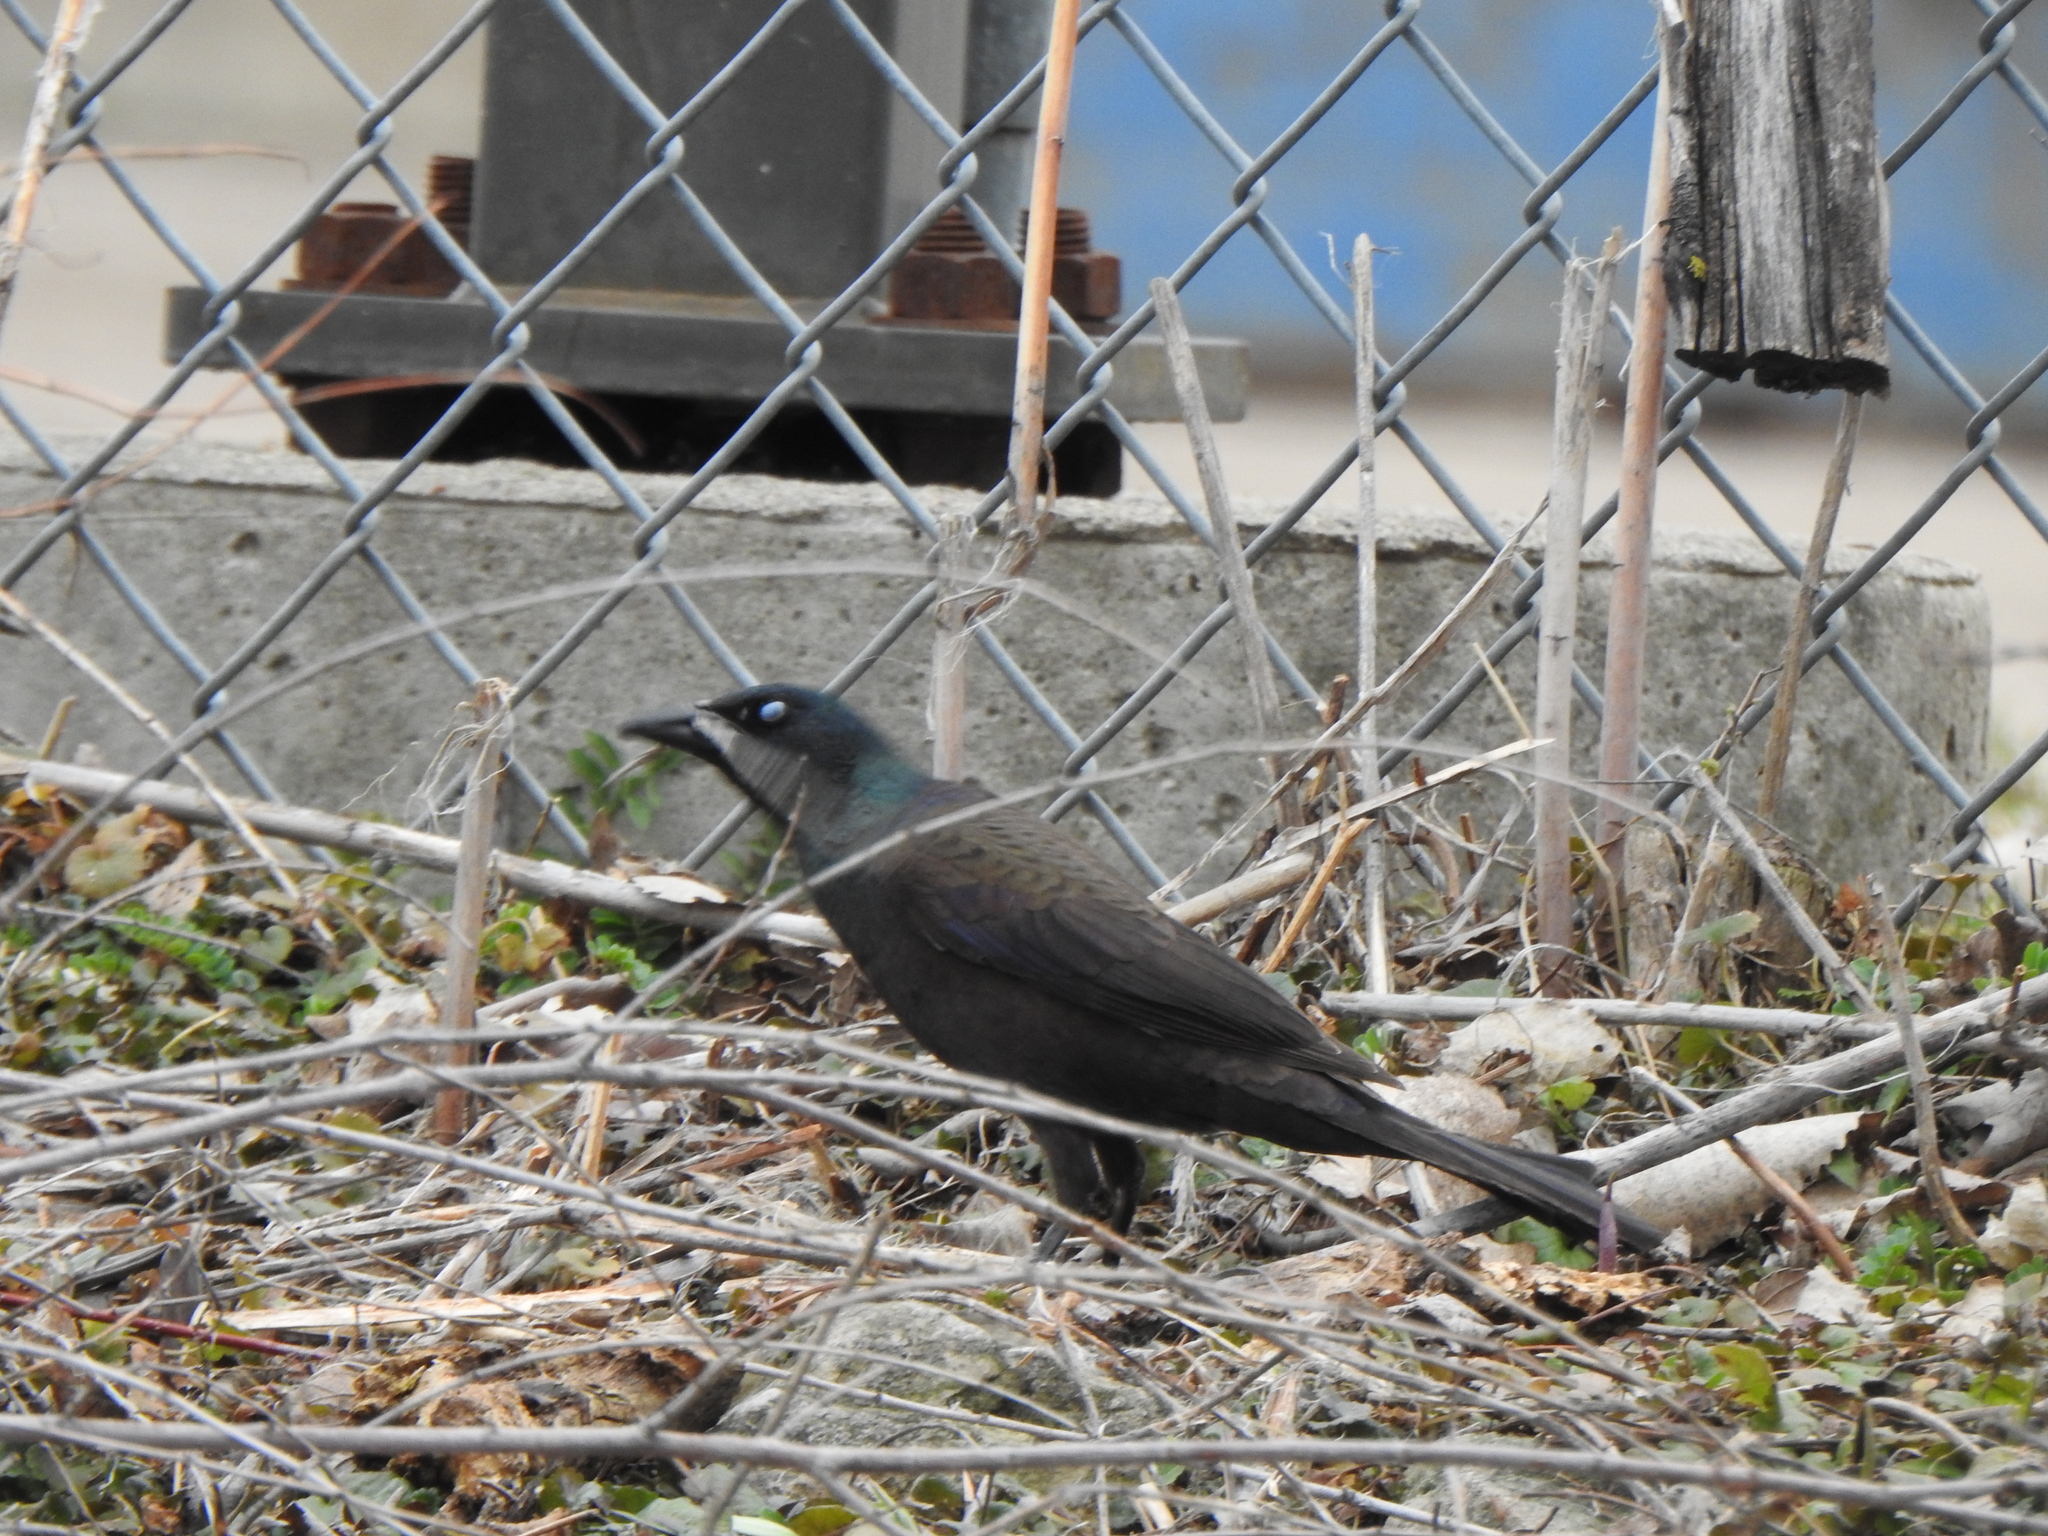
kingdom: Animalia
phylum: Chordata
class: Aves
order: Passeriformes
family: Icteridae
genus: Quiscalus
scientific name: Quiscalus quiscula
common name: Common grackle
